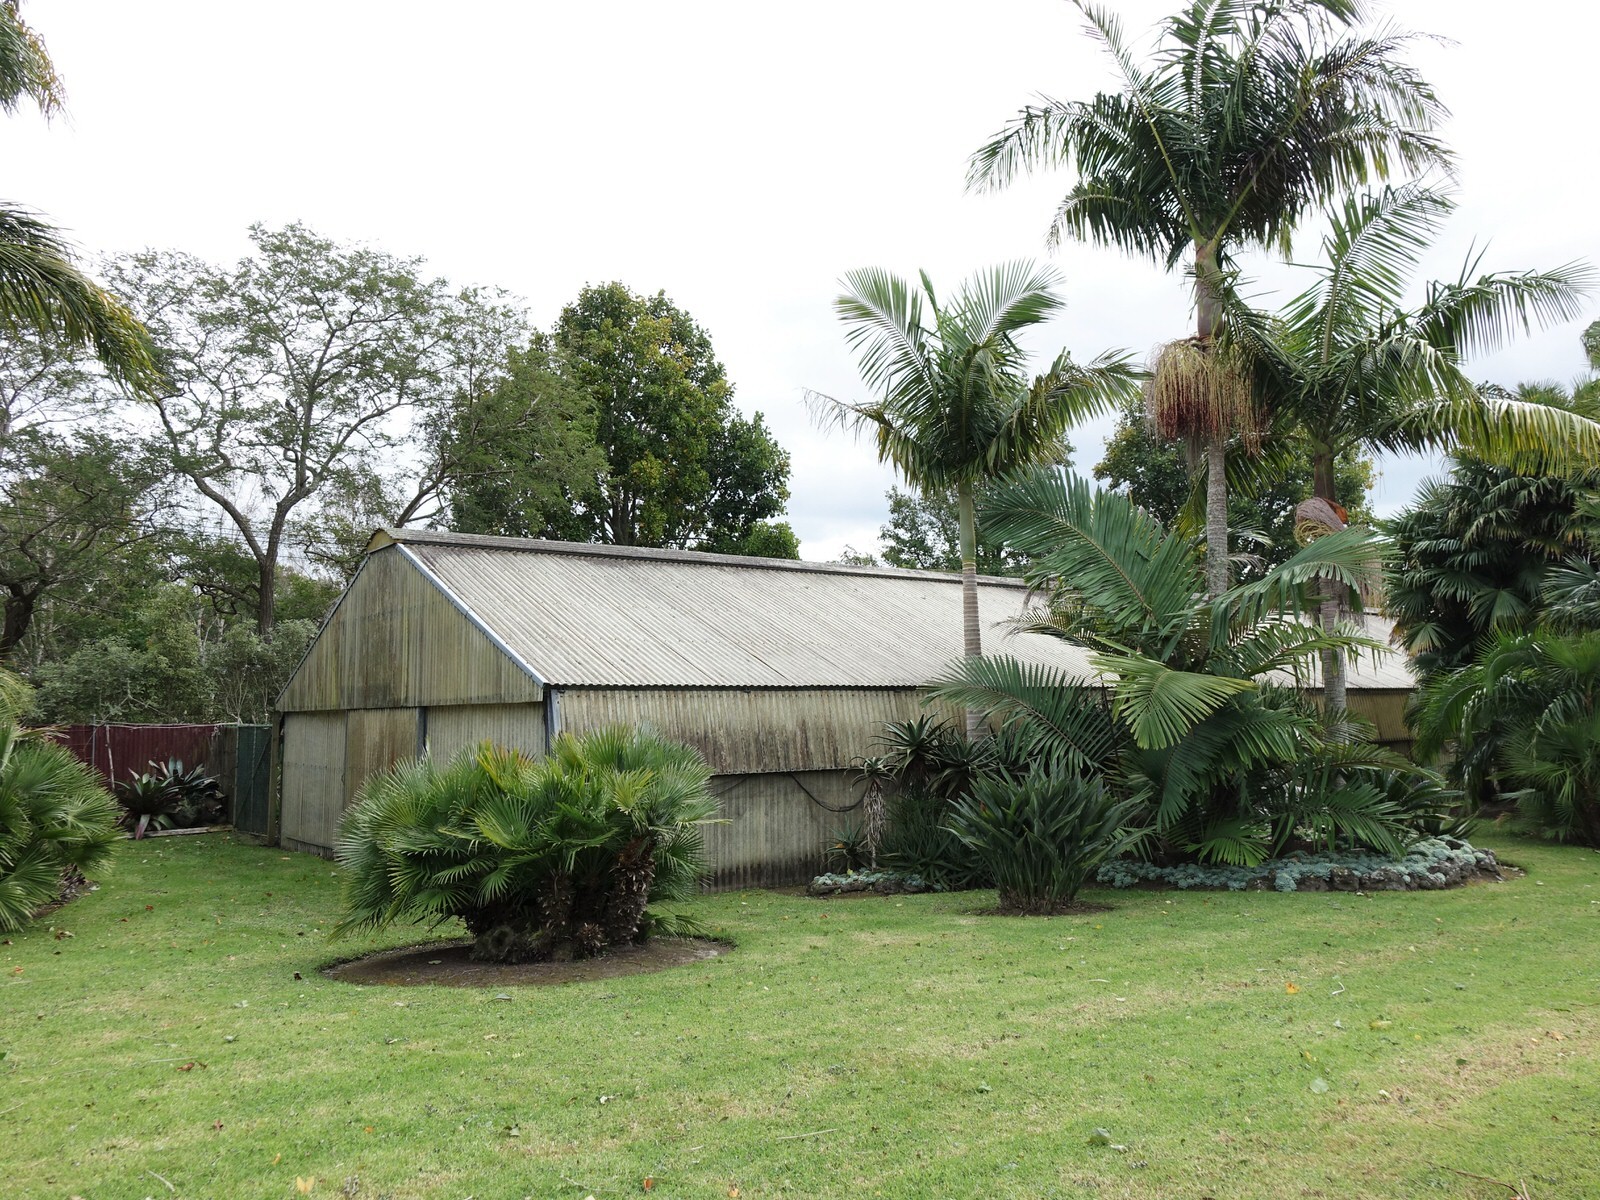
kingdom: Animalia
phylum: Chordata
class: Aves
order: Columbiformes
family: Columbidae
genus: Hemiphaga
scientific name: Hemiphaga novaeseelandiae
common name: New zealand pigeon
